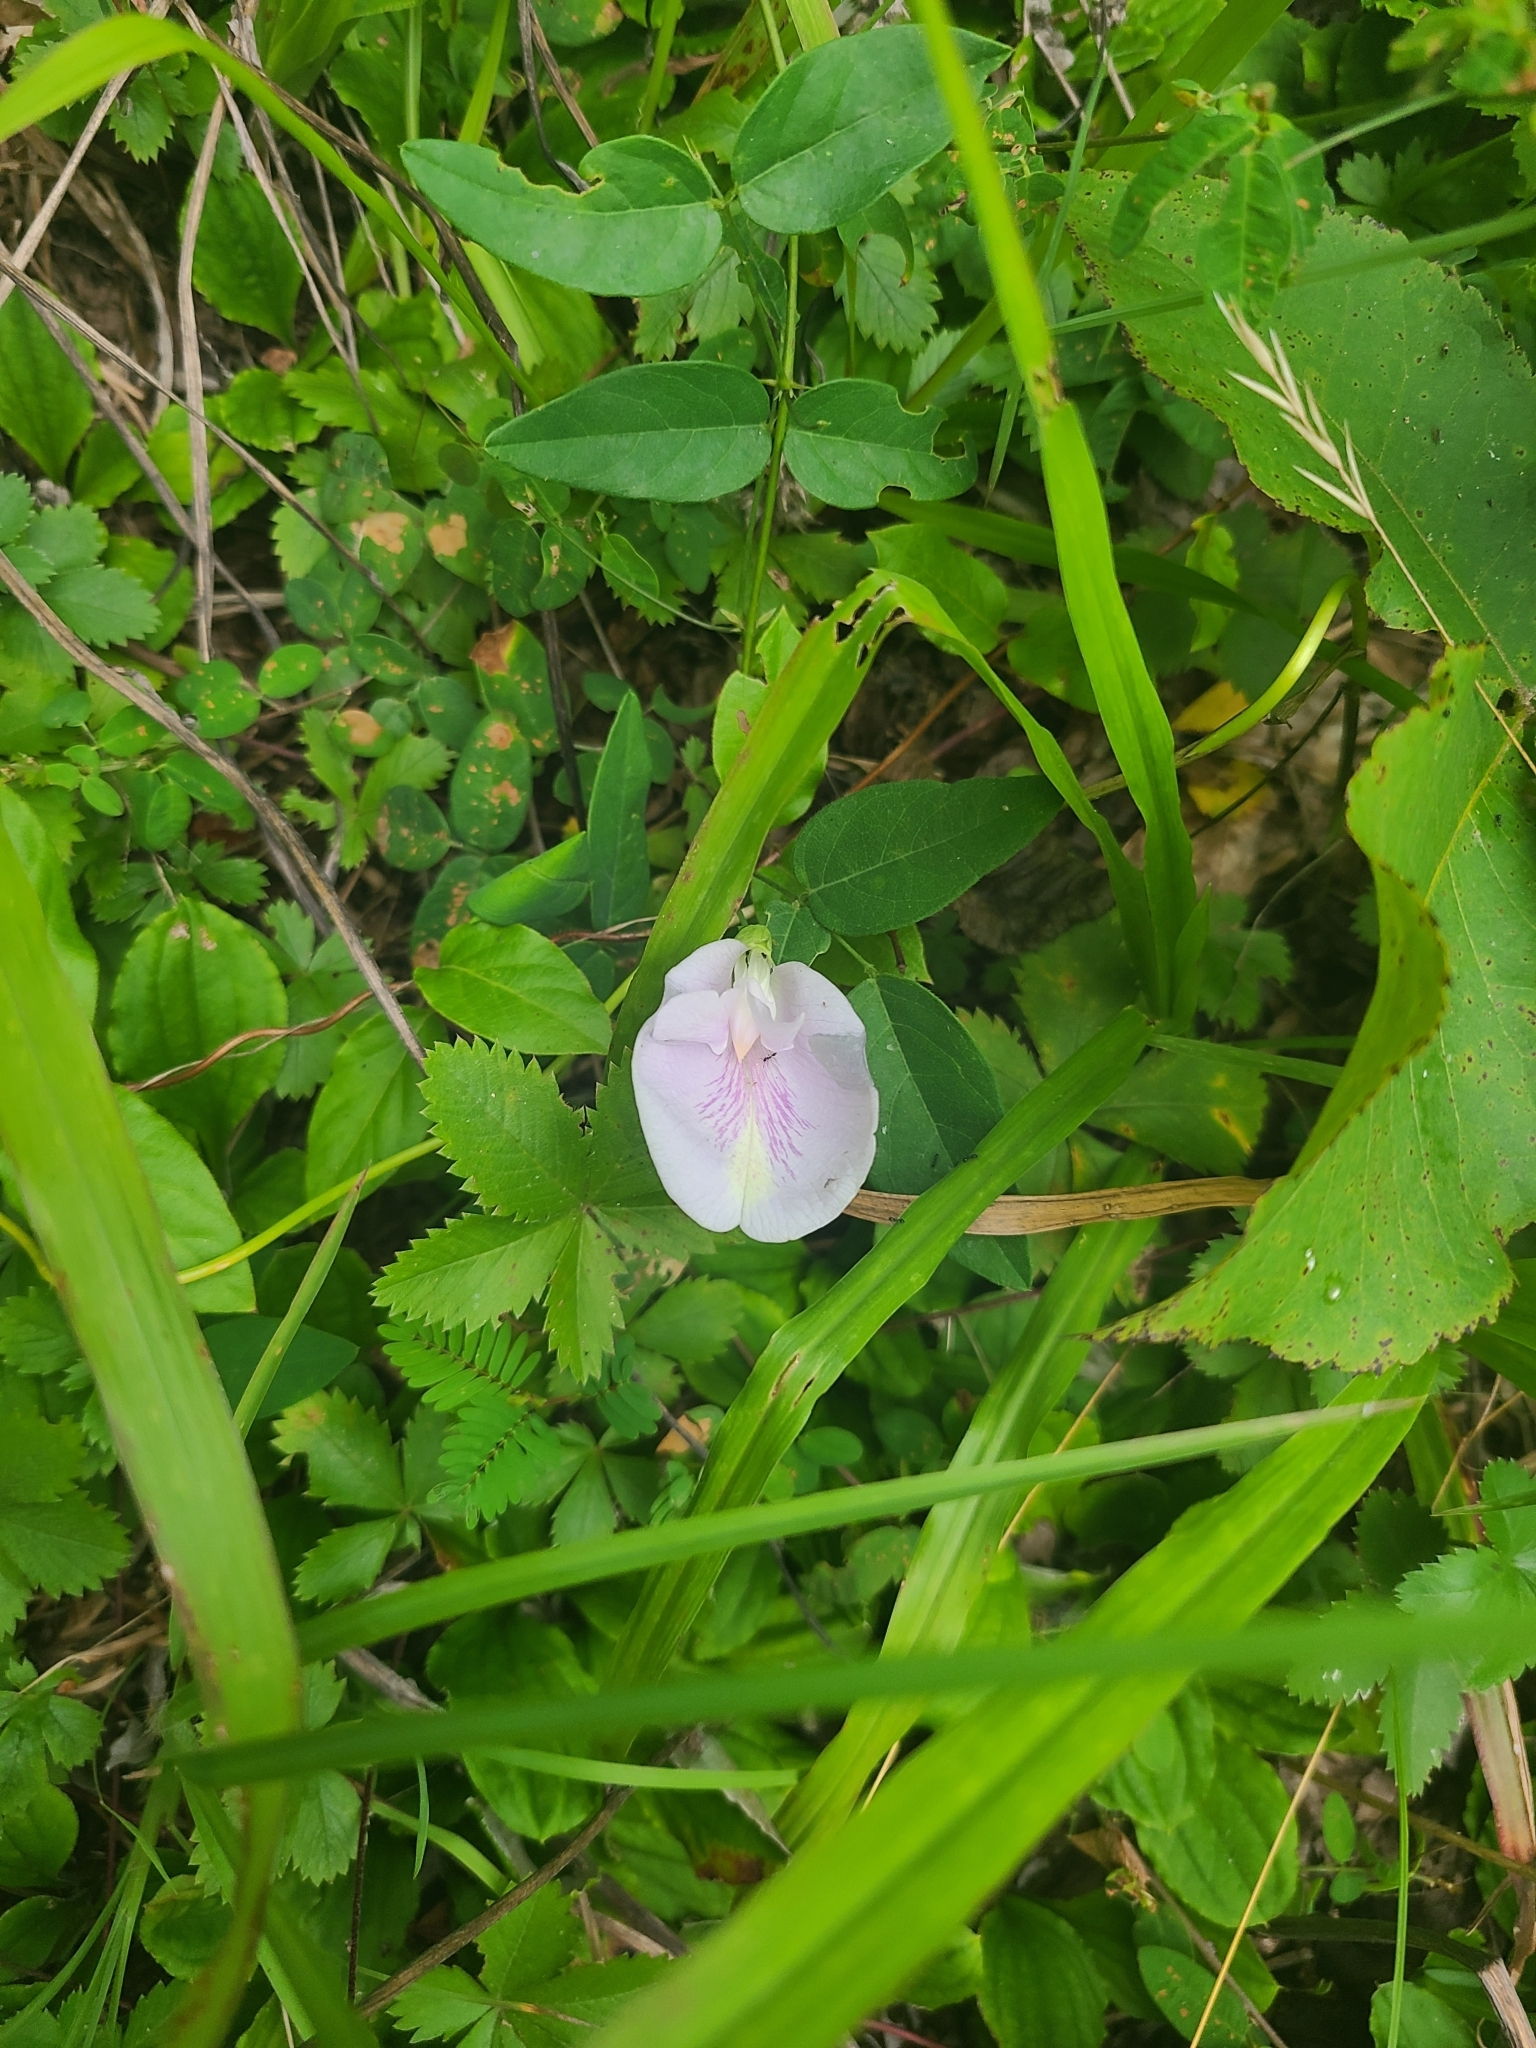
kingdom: Plantae
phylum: Tracheophyta
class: Magnoliopsida
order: Fabales
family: Fabaceae
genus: Clitoria
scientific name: Clitoria mariana
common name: Butterfly-pea
